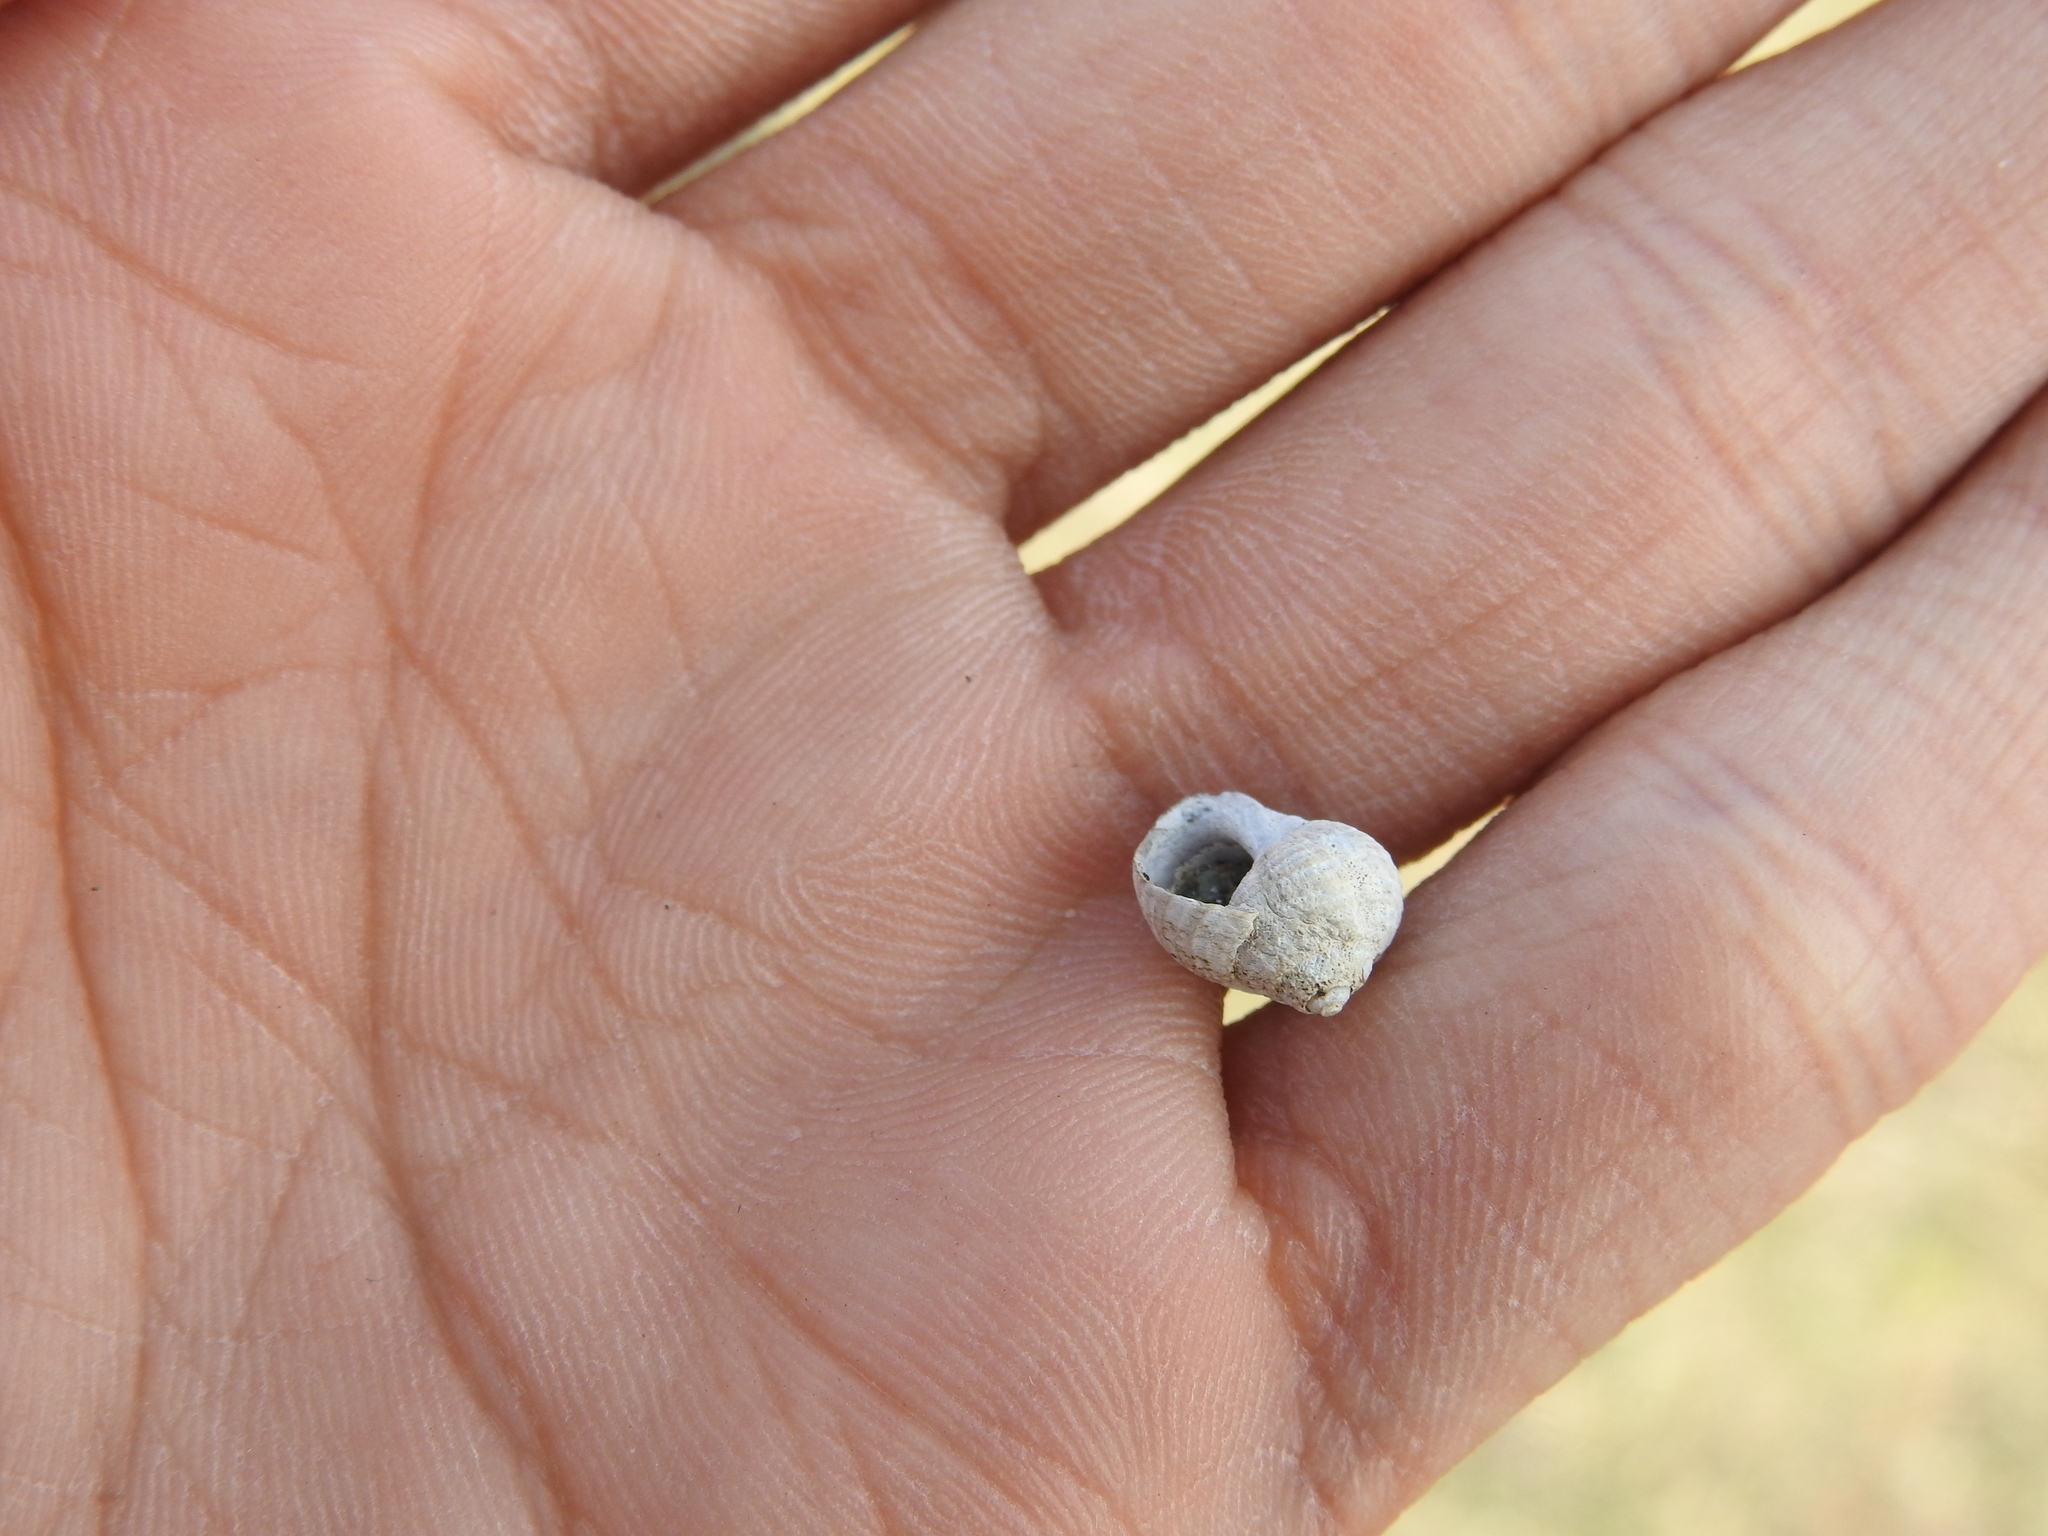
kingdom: Animalia
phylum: Mollusca
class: Gastropoda
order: Littorinimorpha
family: Littorinidae
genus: Littorina
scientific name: Littorina littorea
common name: Common periwinkle
